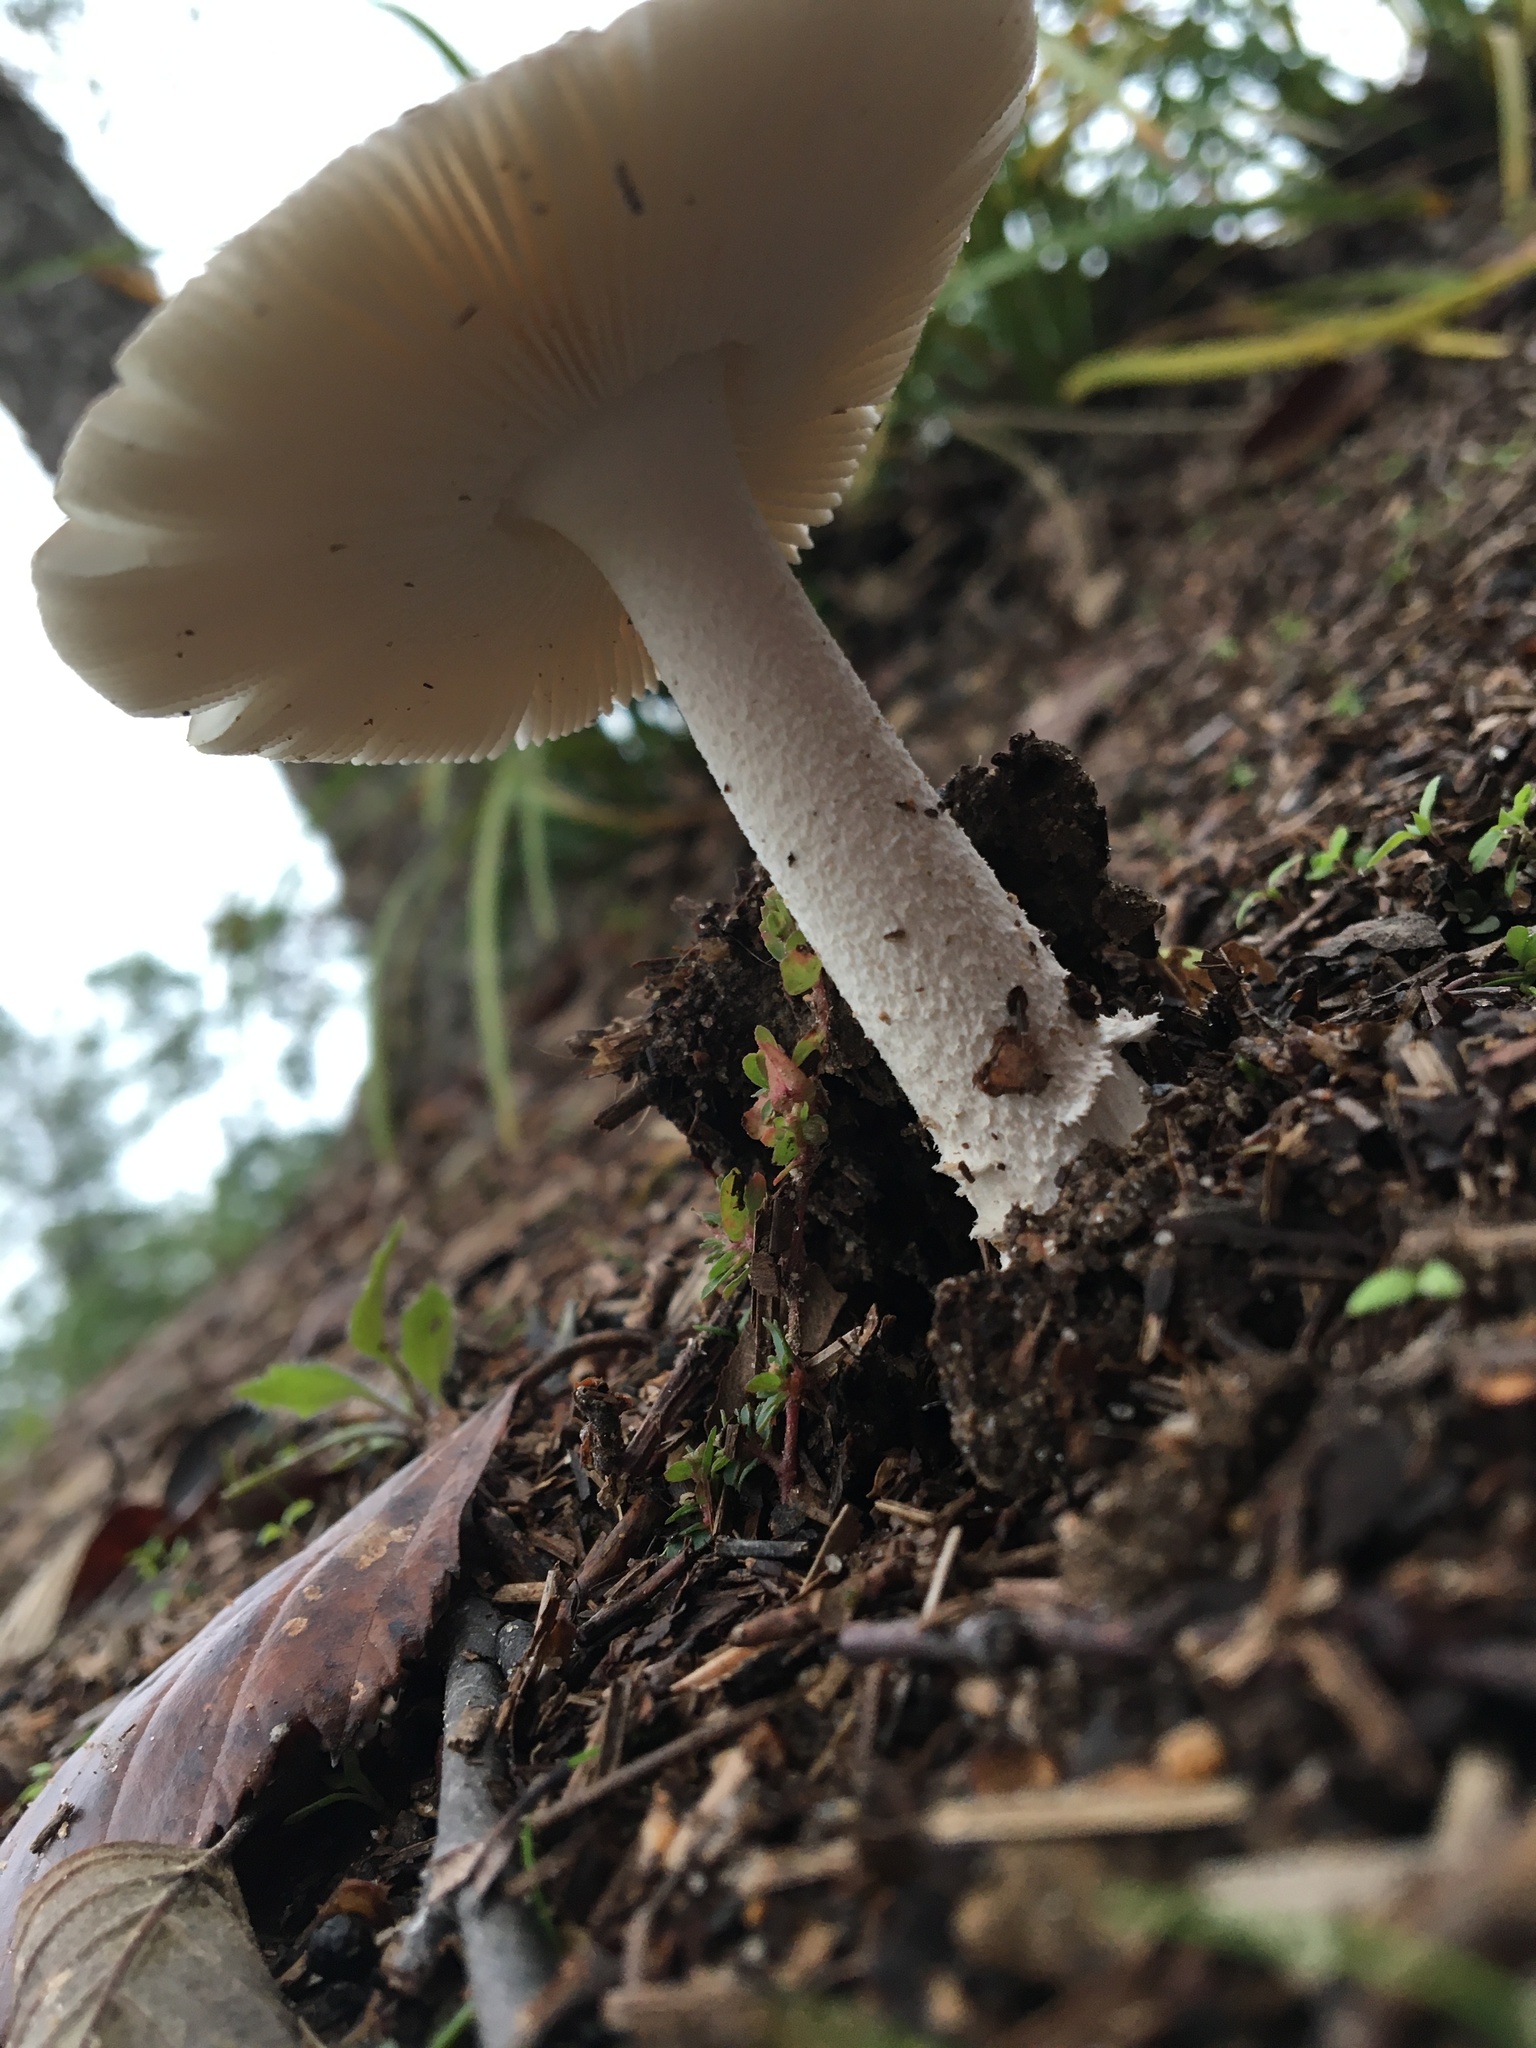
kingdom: Fungi
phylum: Basidiomycota
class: Agaricomycetes
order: Agaricales
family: Amanitaceae
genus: Amanita
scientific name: Amanita vaginata
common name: Grisette
